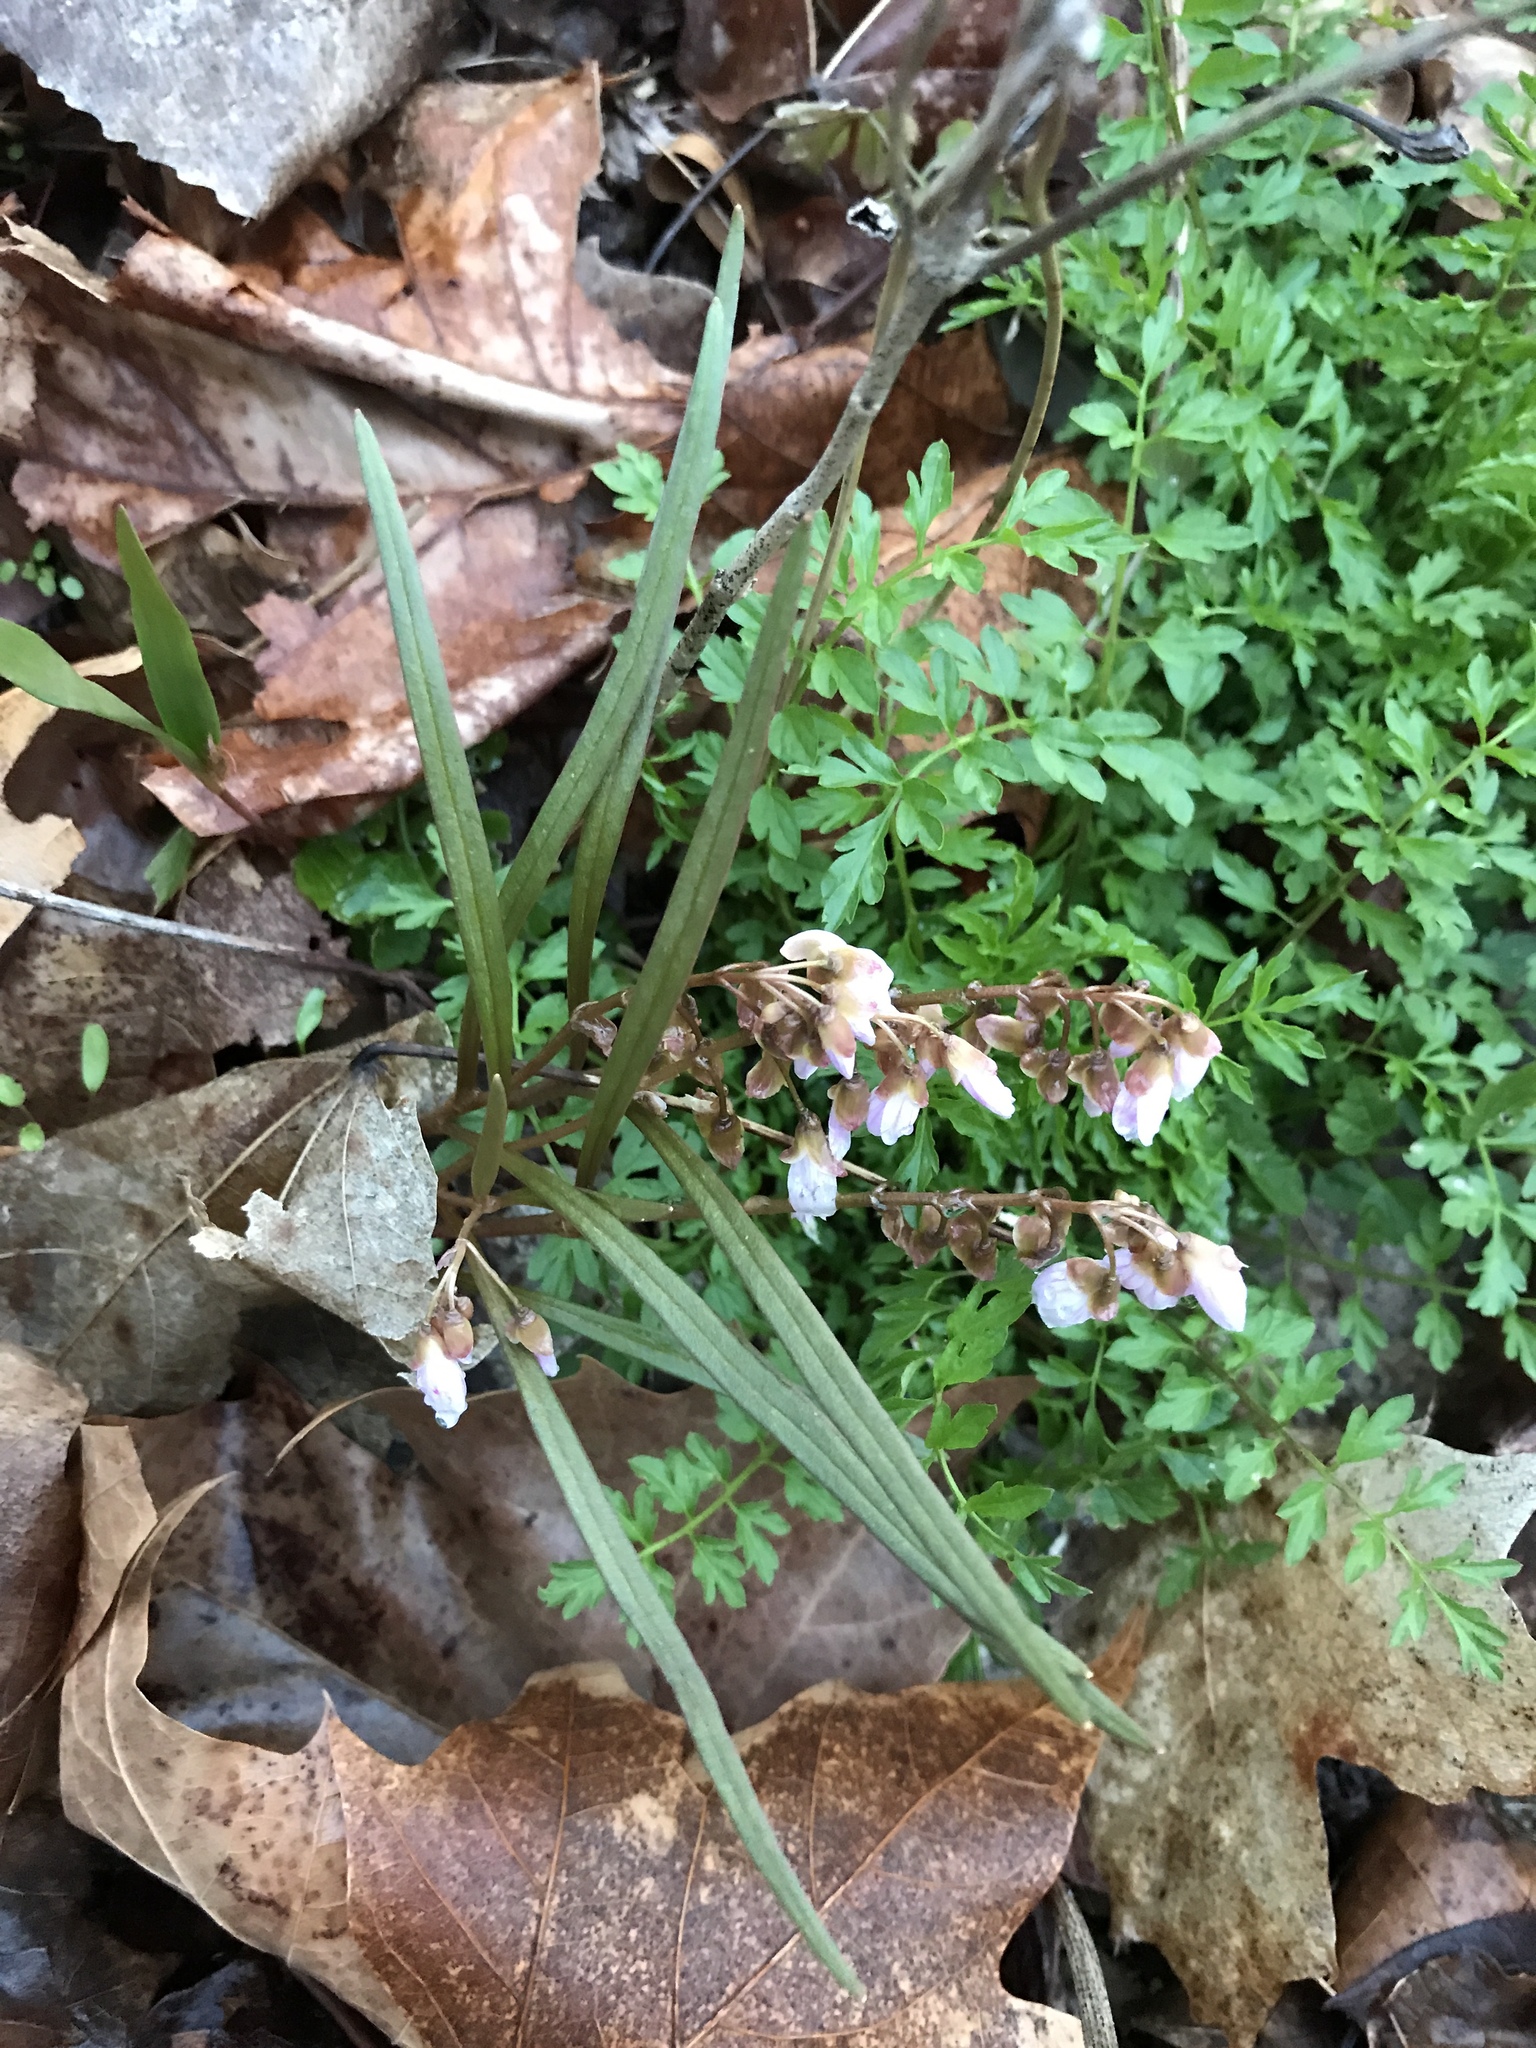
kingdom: Plantae
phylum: Tracheophyta
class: Magnoliopsida
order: Caryophyllales
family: Montiaceae
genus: Claytonia
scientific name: Claytonia virginica
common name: Virginia springbeauty
